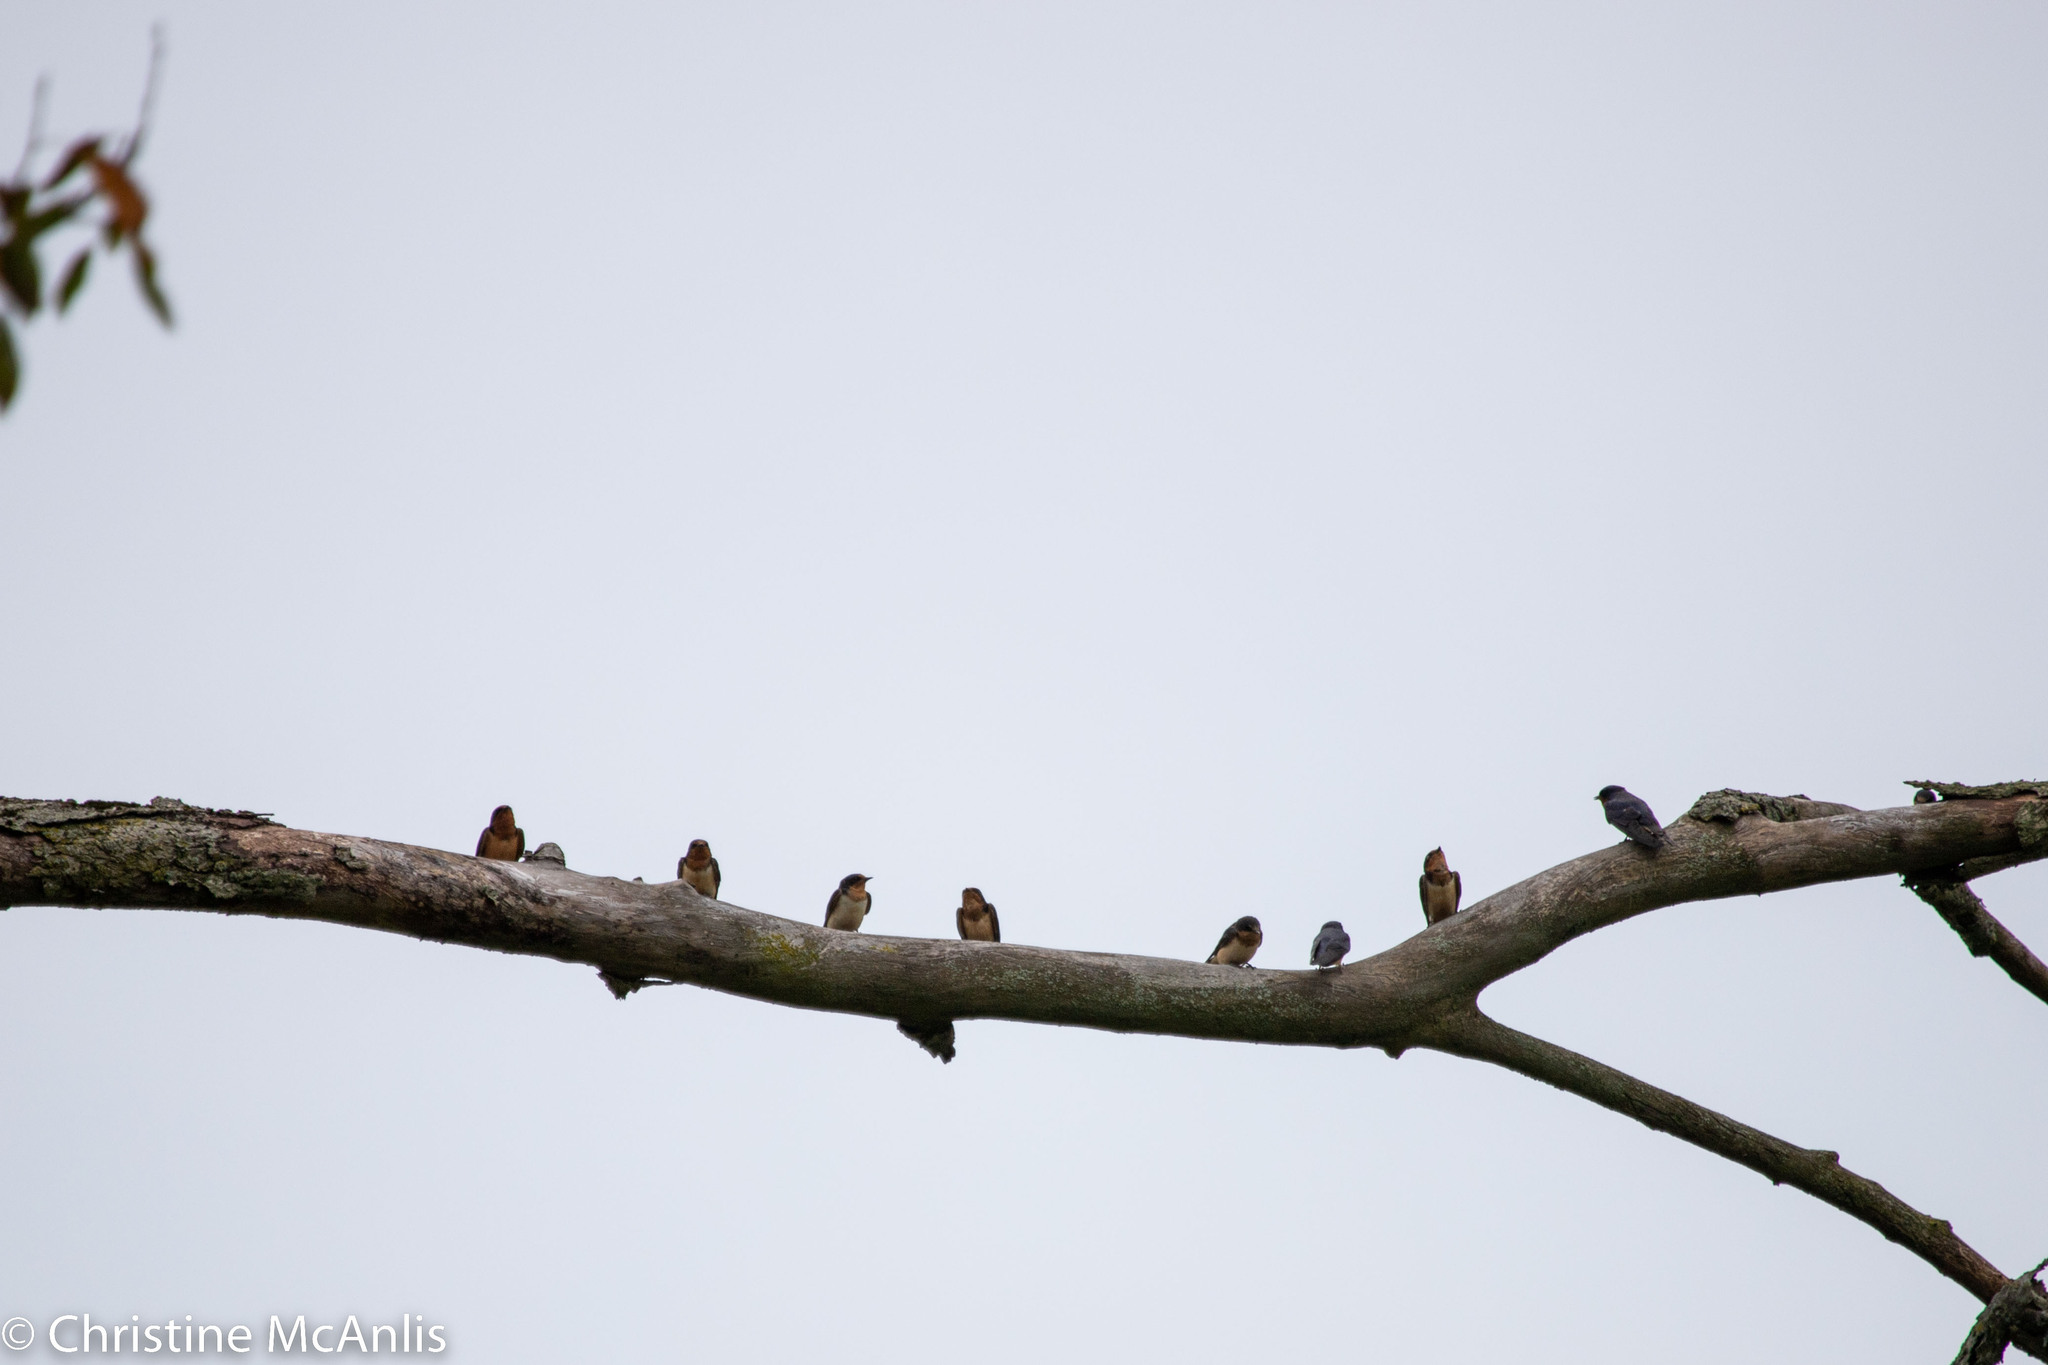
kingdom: Animalia
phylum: Chordata
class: Aves
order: Passeriformes
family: Hirundinidae
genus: Hirundo
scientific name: Hirundo rustica
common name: Barn swallow
